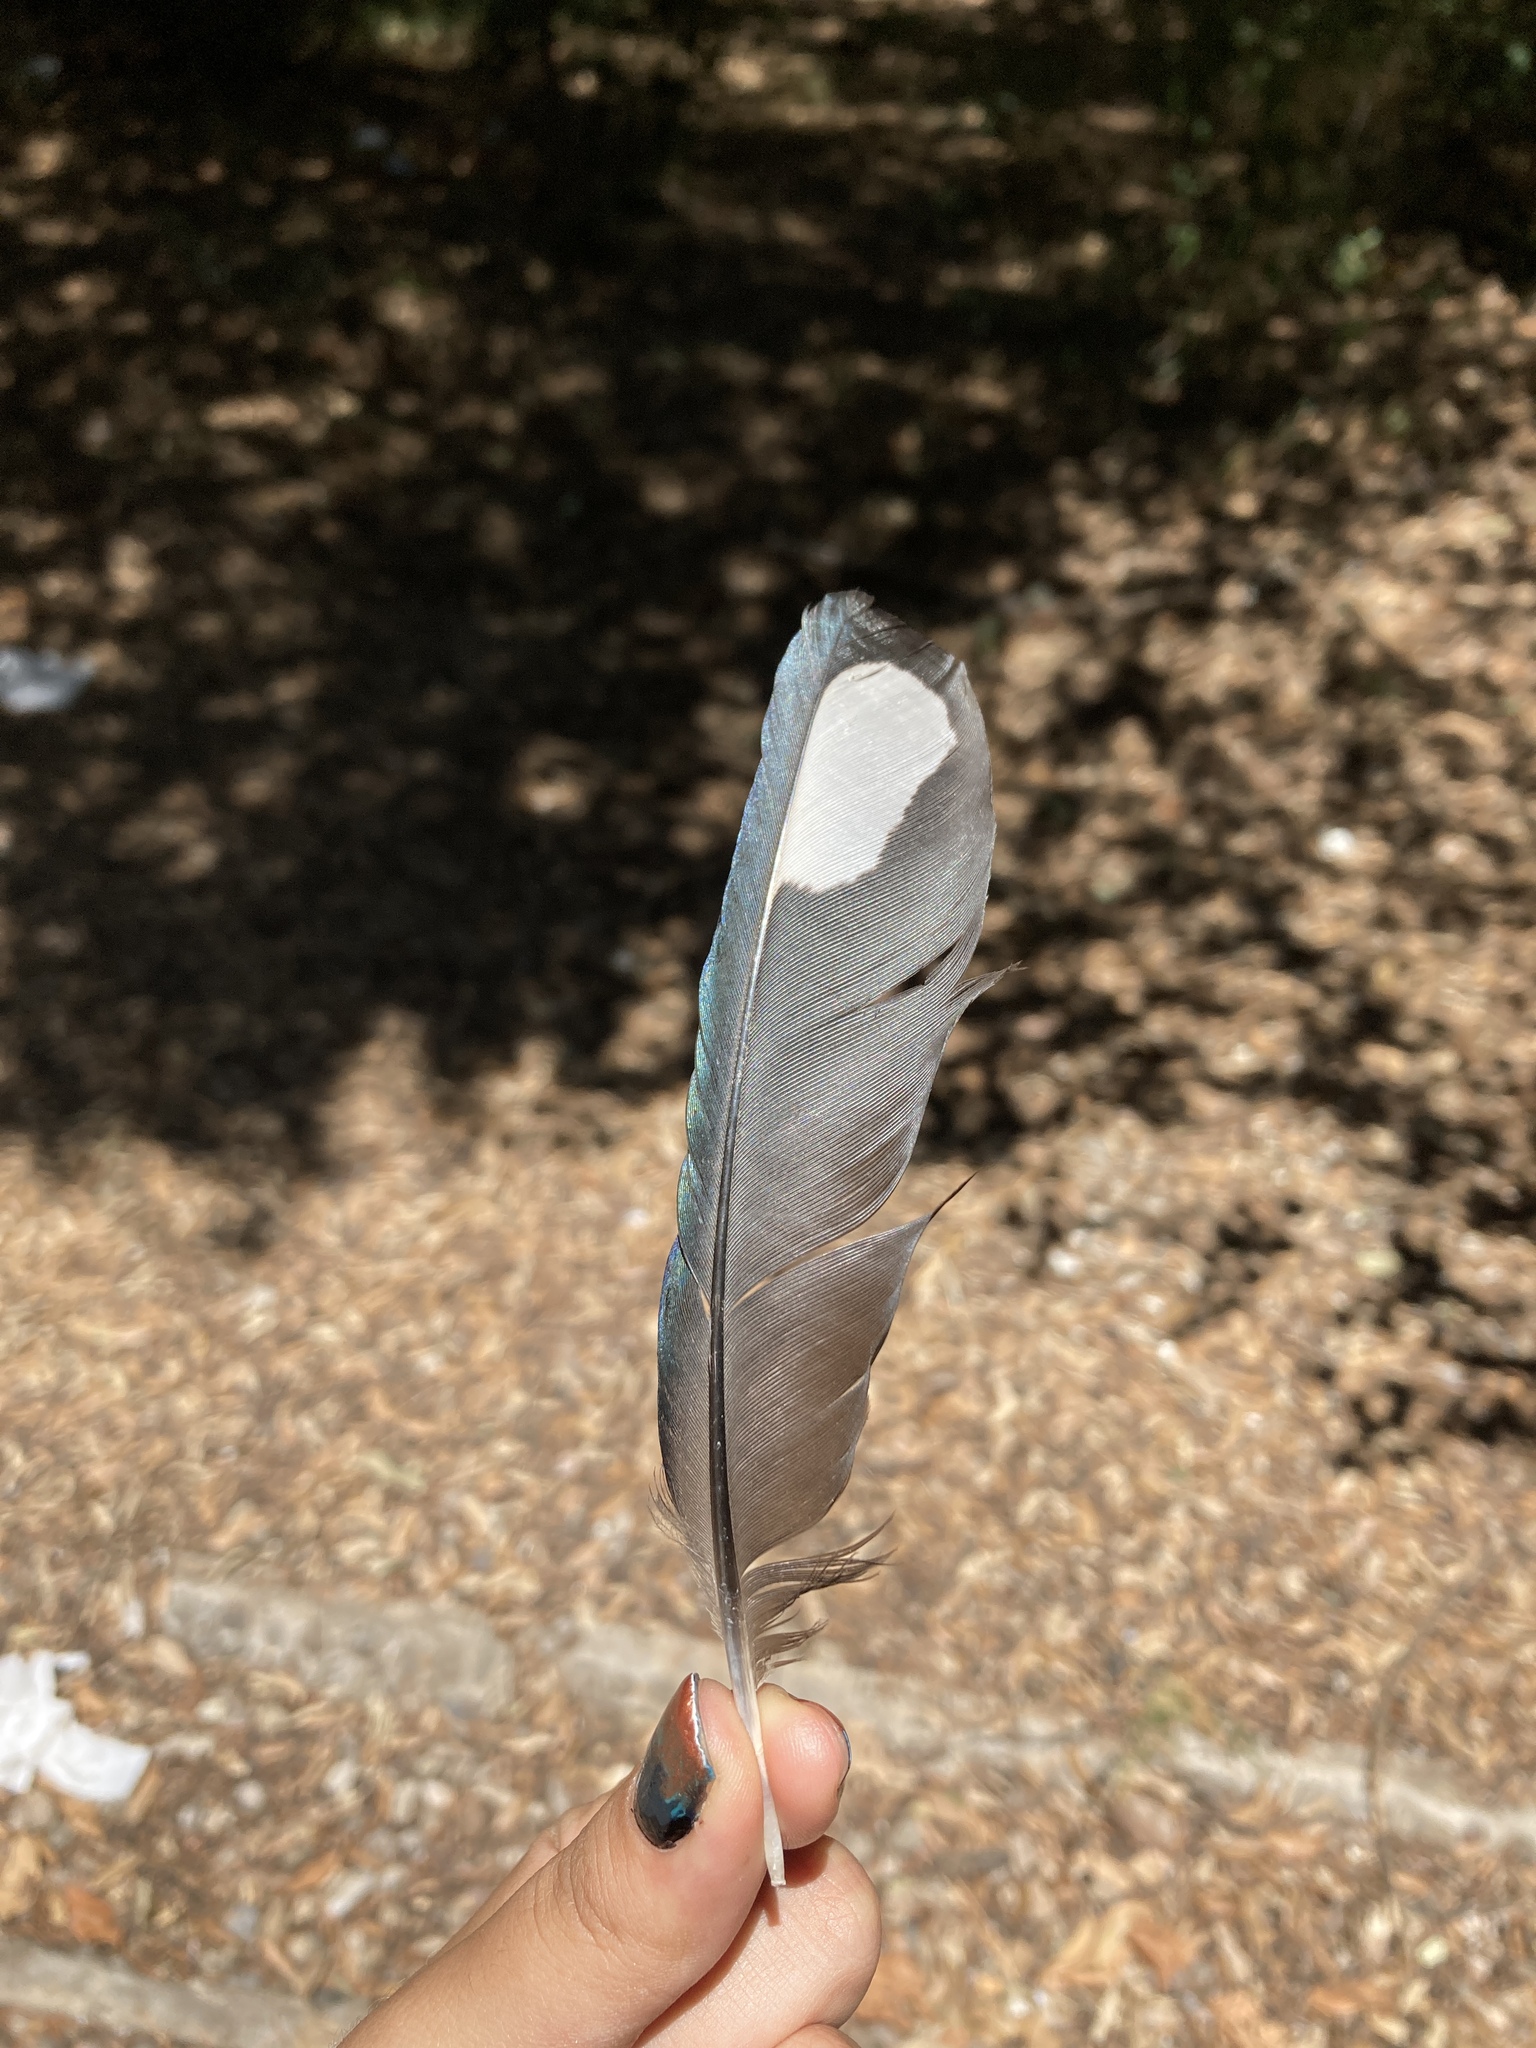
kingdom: Animalia
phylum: Chordata
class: Aves
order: Passeriformes
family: Corvidae
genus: Pica
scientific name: Pica pica
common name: Eurasian magpie
